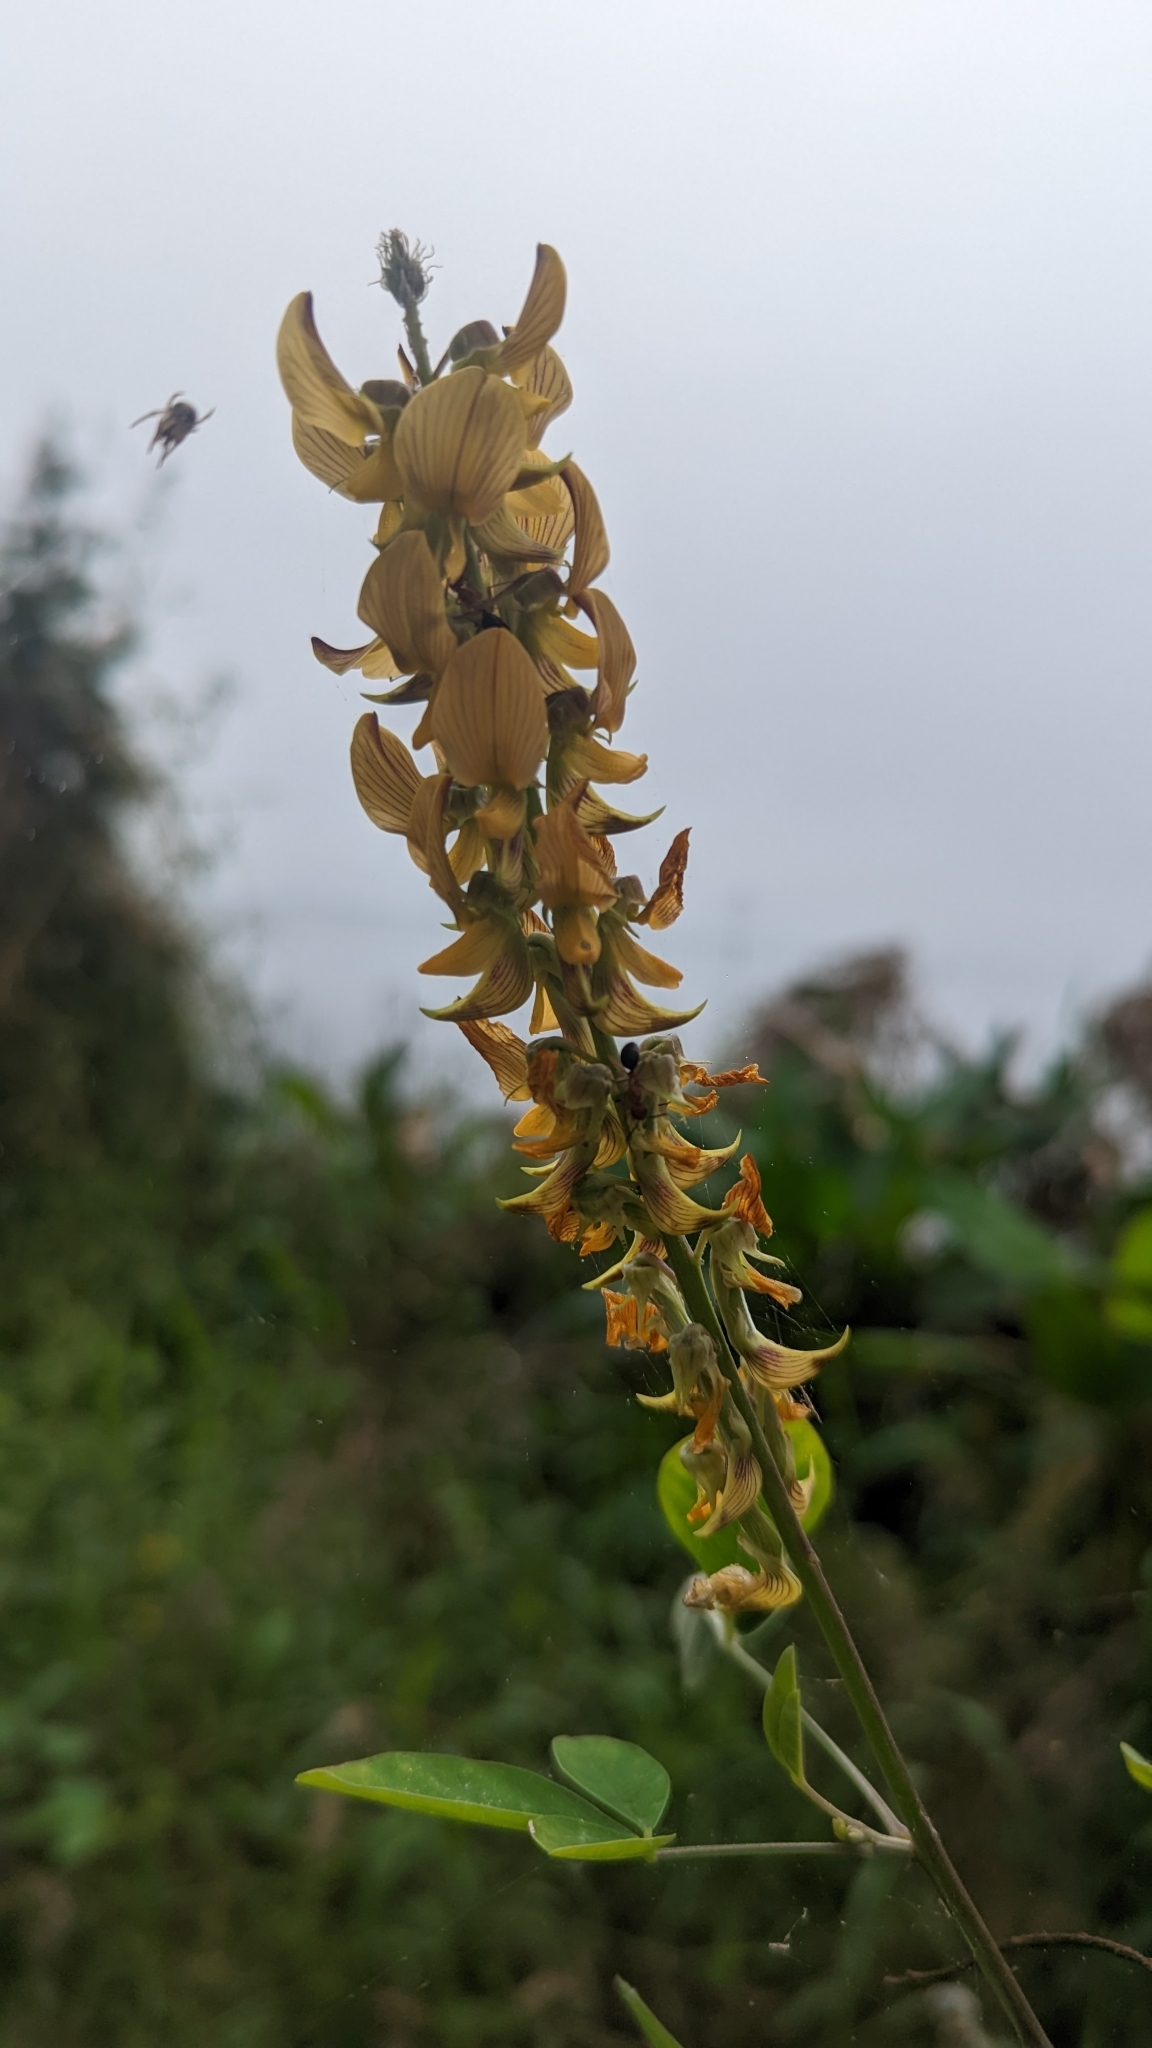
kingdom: Plantae
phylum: Tracheophyta
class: Magnoliopsida
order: Fabales
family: Fabaceae
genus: Crotalaria
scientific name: Crotalaria pallida
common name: Smooth rattlebox
